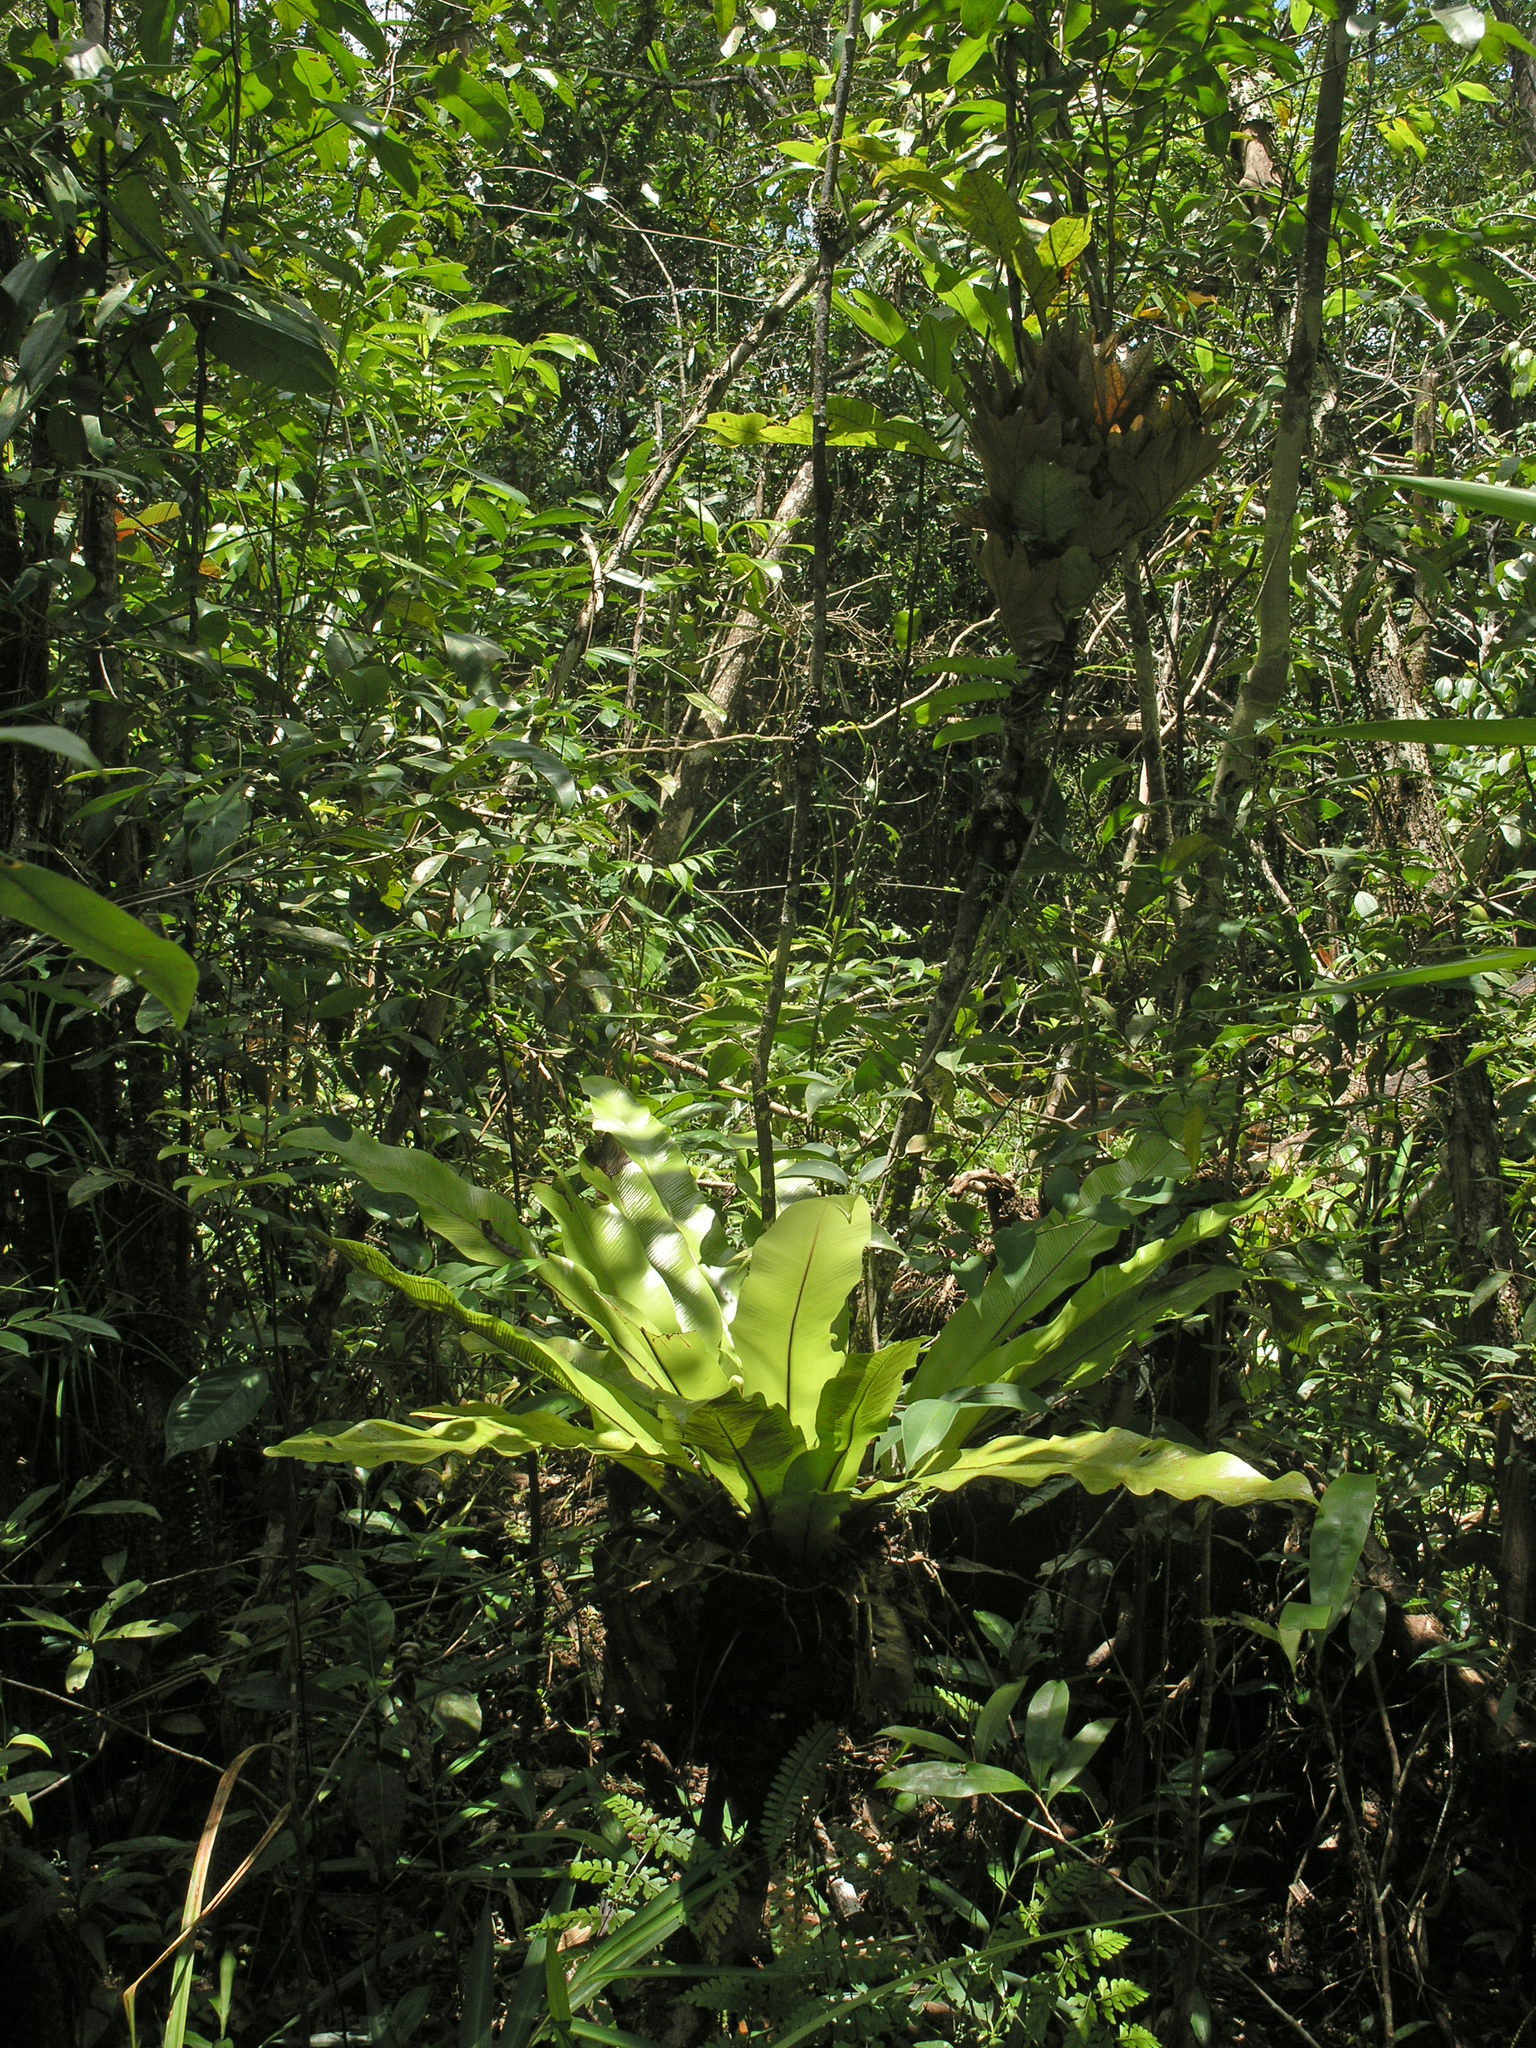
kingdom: Plantae
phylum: Tracheophyta
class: Polypodiopsida
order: Polypodiales
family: Aspleniaceae
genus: Asplenium
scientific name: Asplenium nidus
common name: Bird's-nest fern
